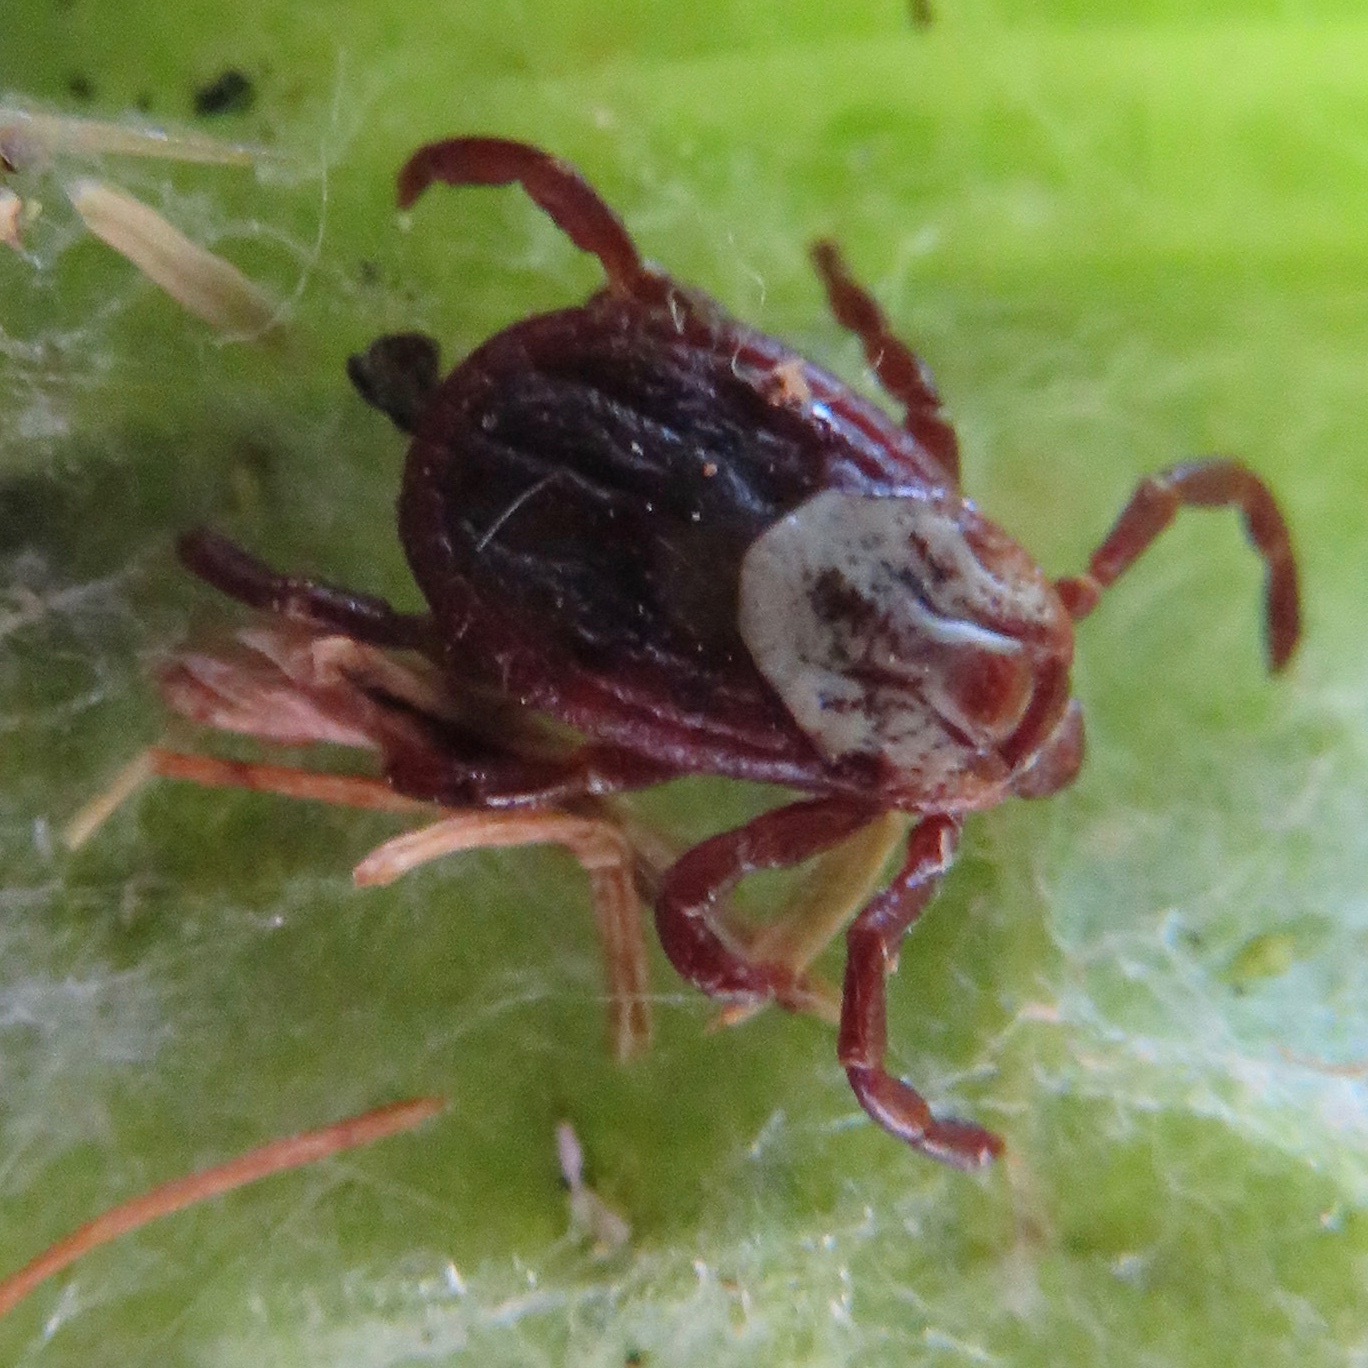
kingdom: Animalia
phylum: Arthropoda
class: Arachnida
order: Ixodida
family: Ixodidae
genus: Dermacentor
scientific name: Dermacentor occidentalis
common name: Net tick
